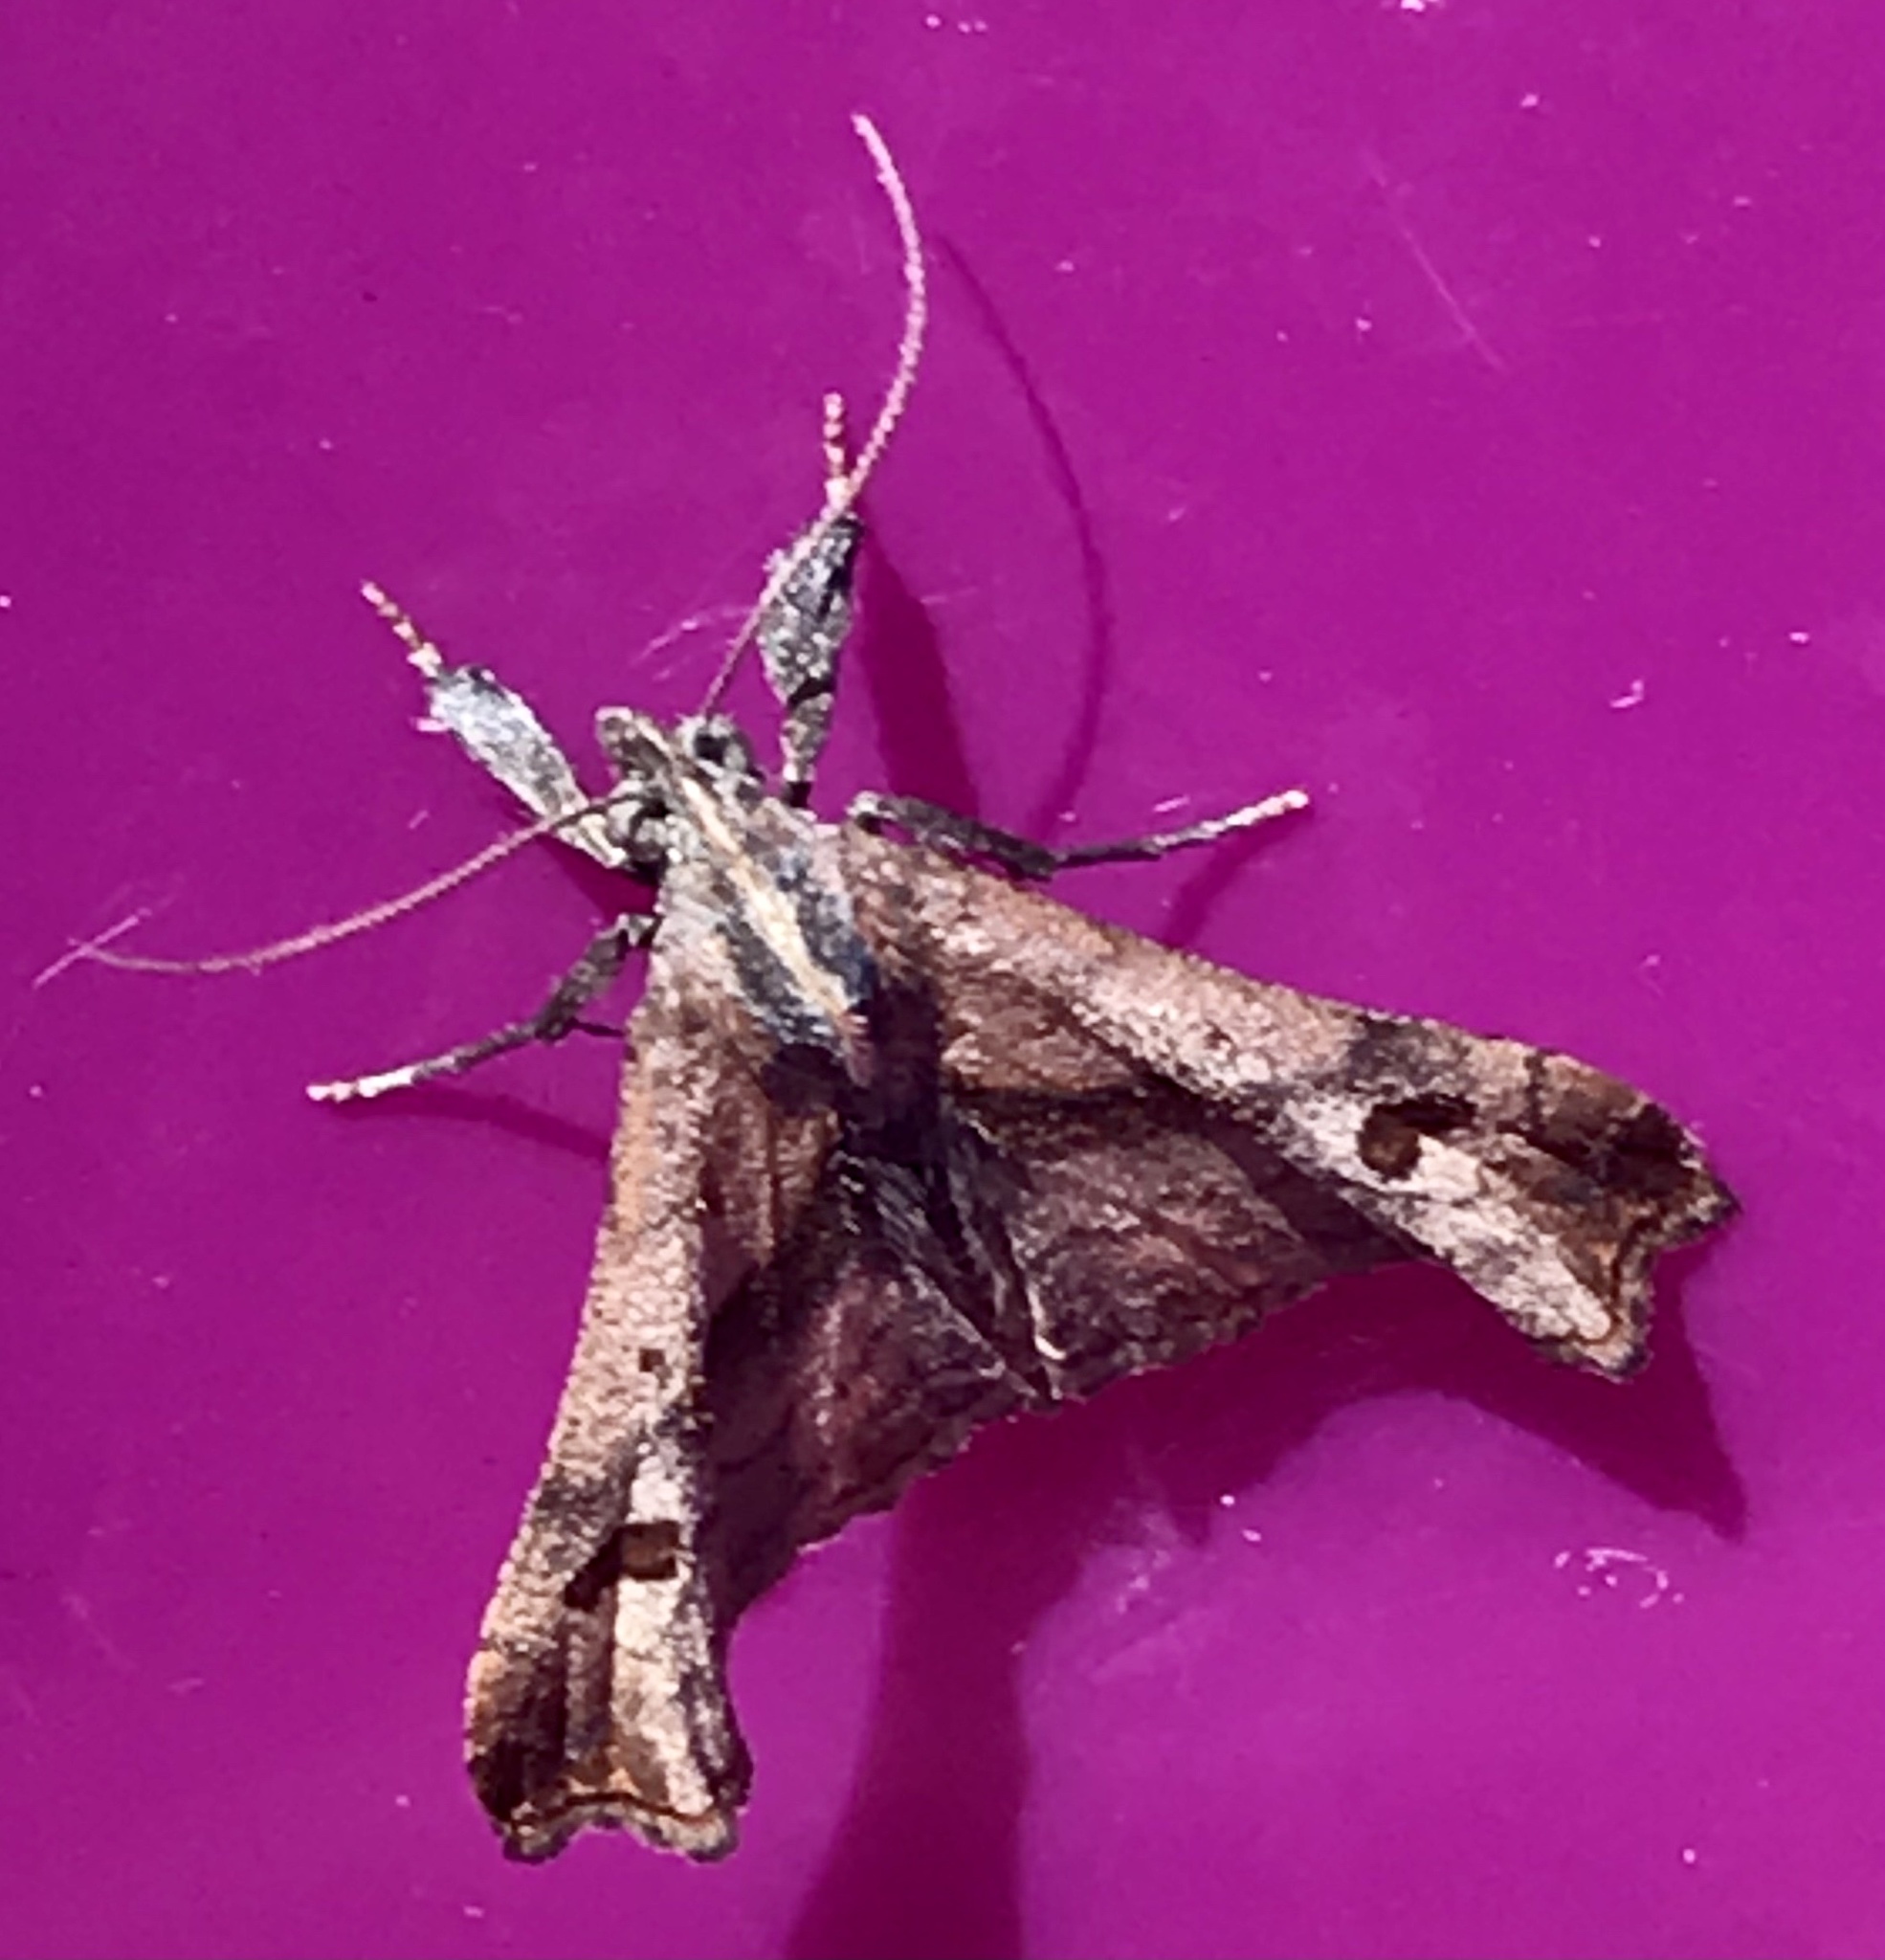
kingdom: Animalia
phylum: Arthropoda
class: Insecta
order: Lepidoptera
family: Erebidae
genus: Palthis
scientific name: Palthis angulalis
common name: Dark-spotted palthis moth
